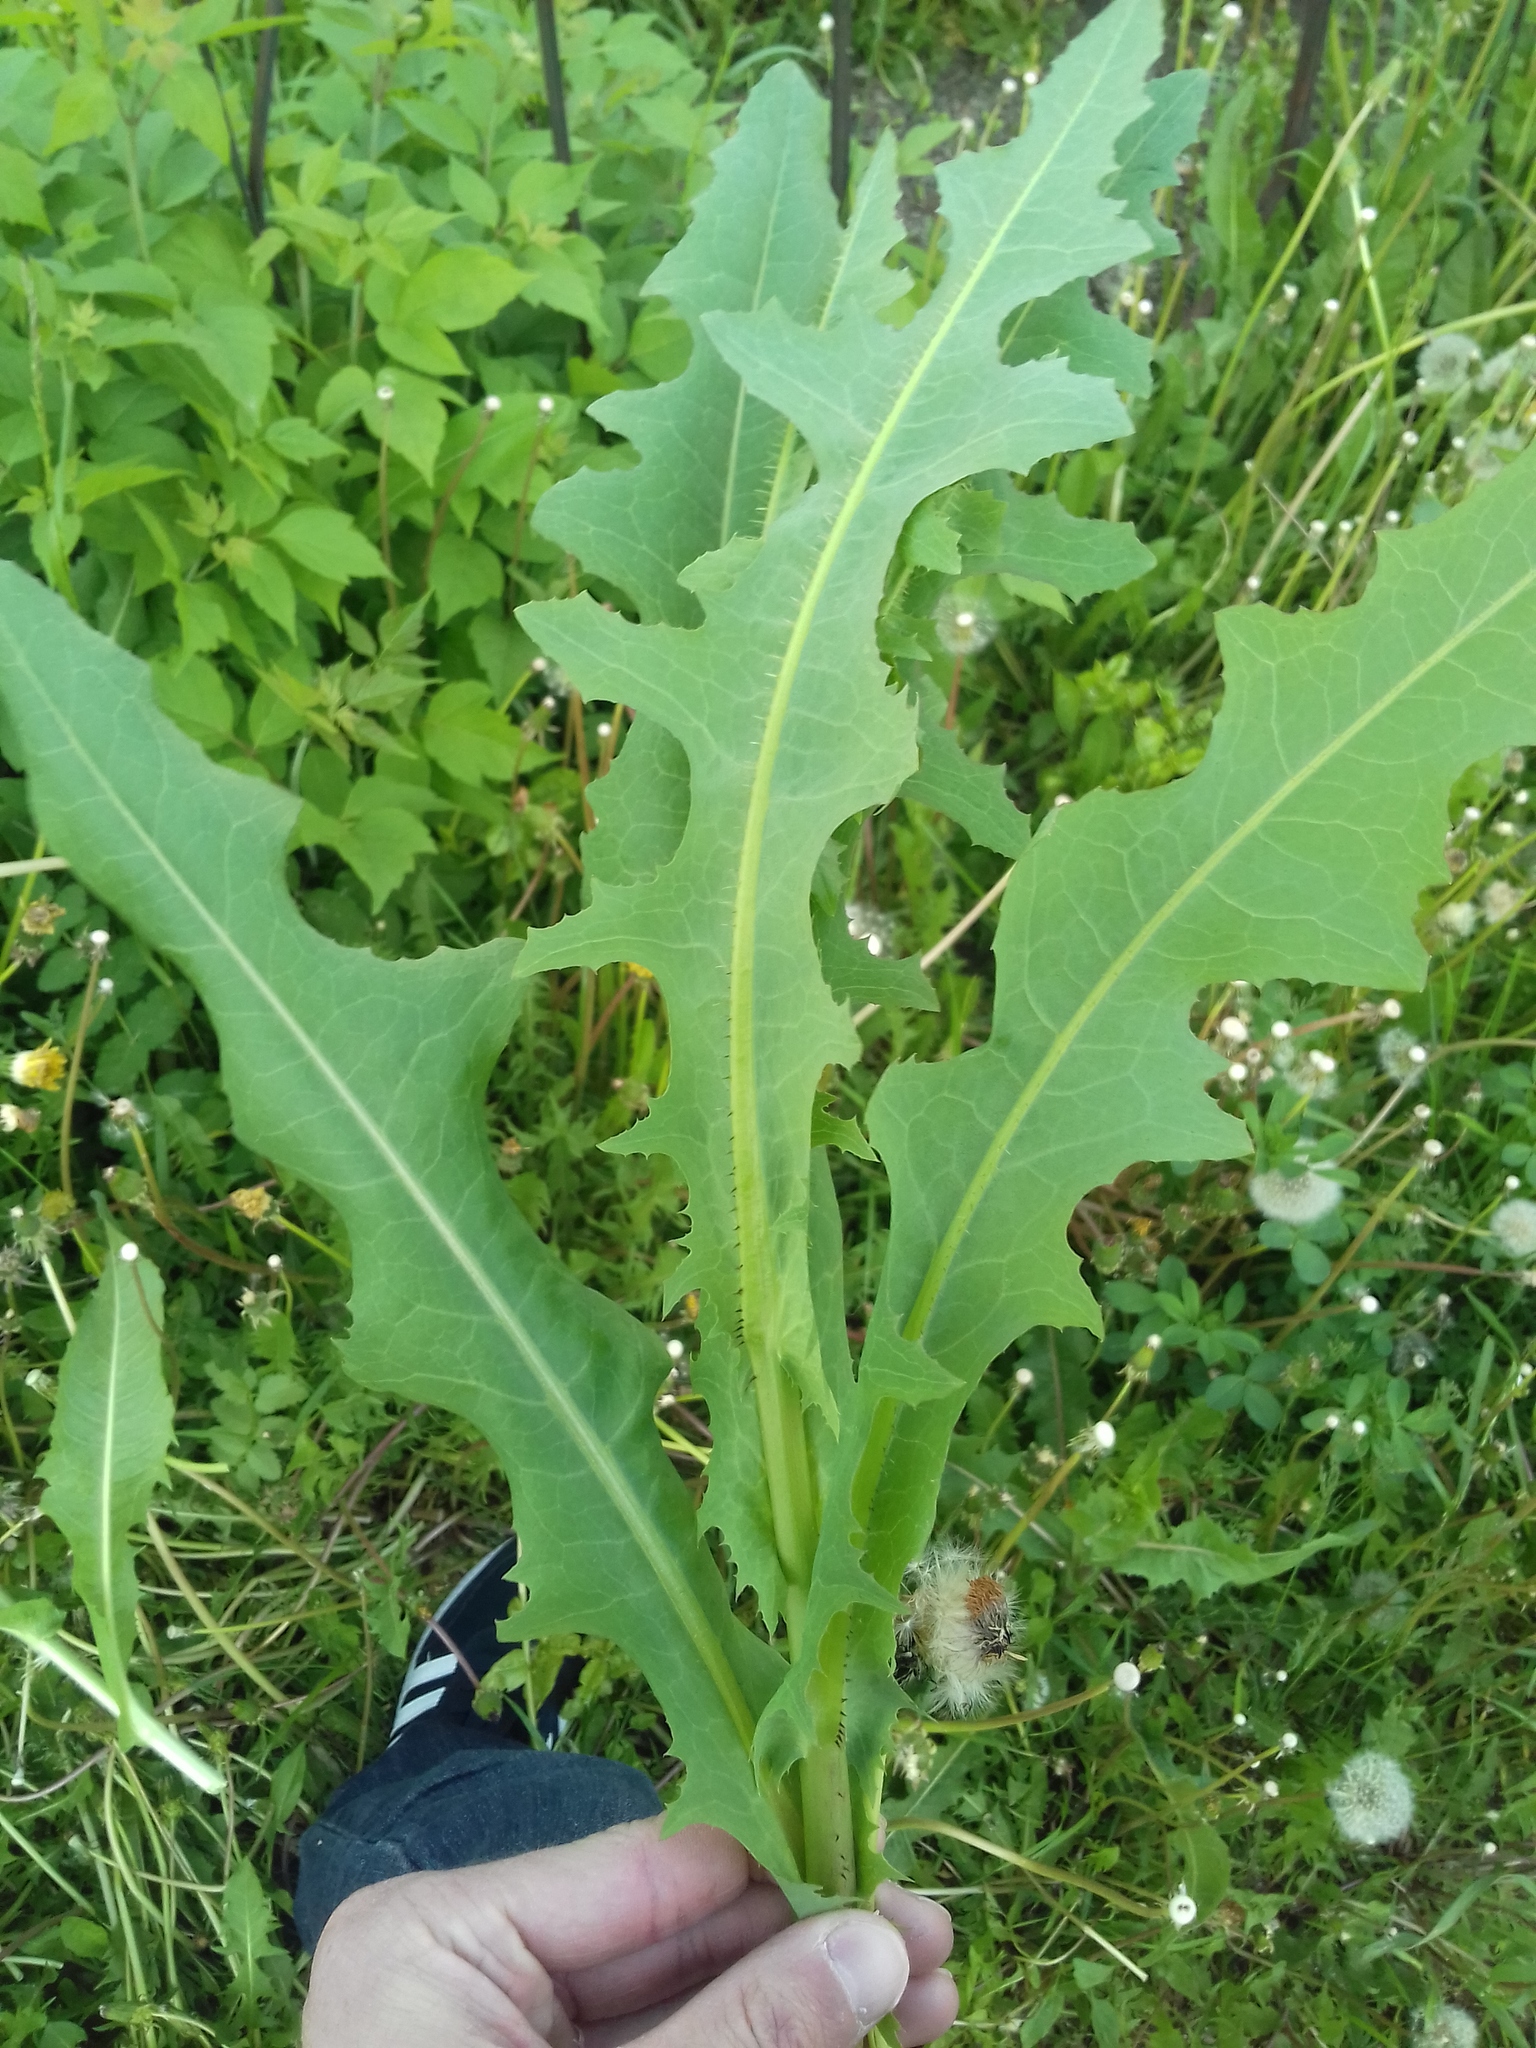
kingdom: Plantae
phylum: Tracheophyta
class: Magnoliopsida
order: Asterales
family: Asteraceae
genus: Lactuca
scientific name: Lactuca serriola
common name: Prickly lettuce
